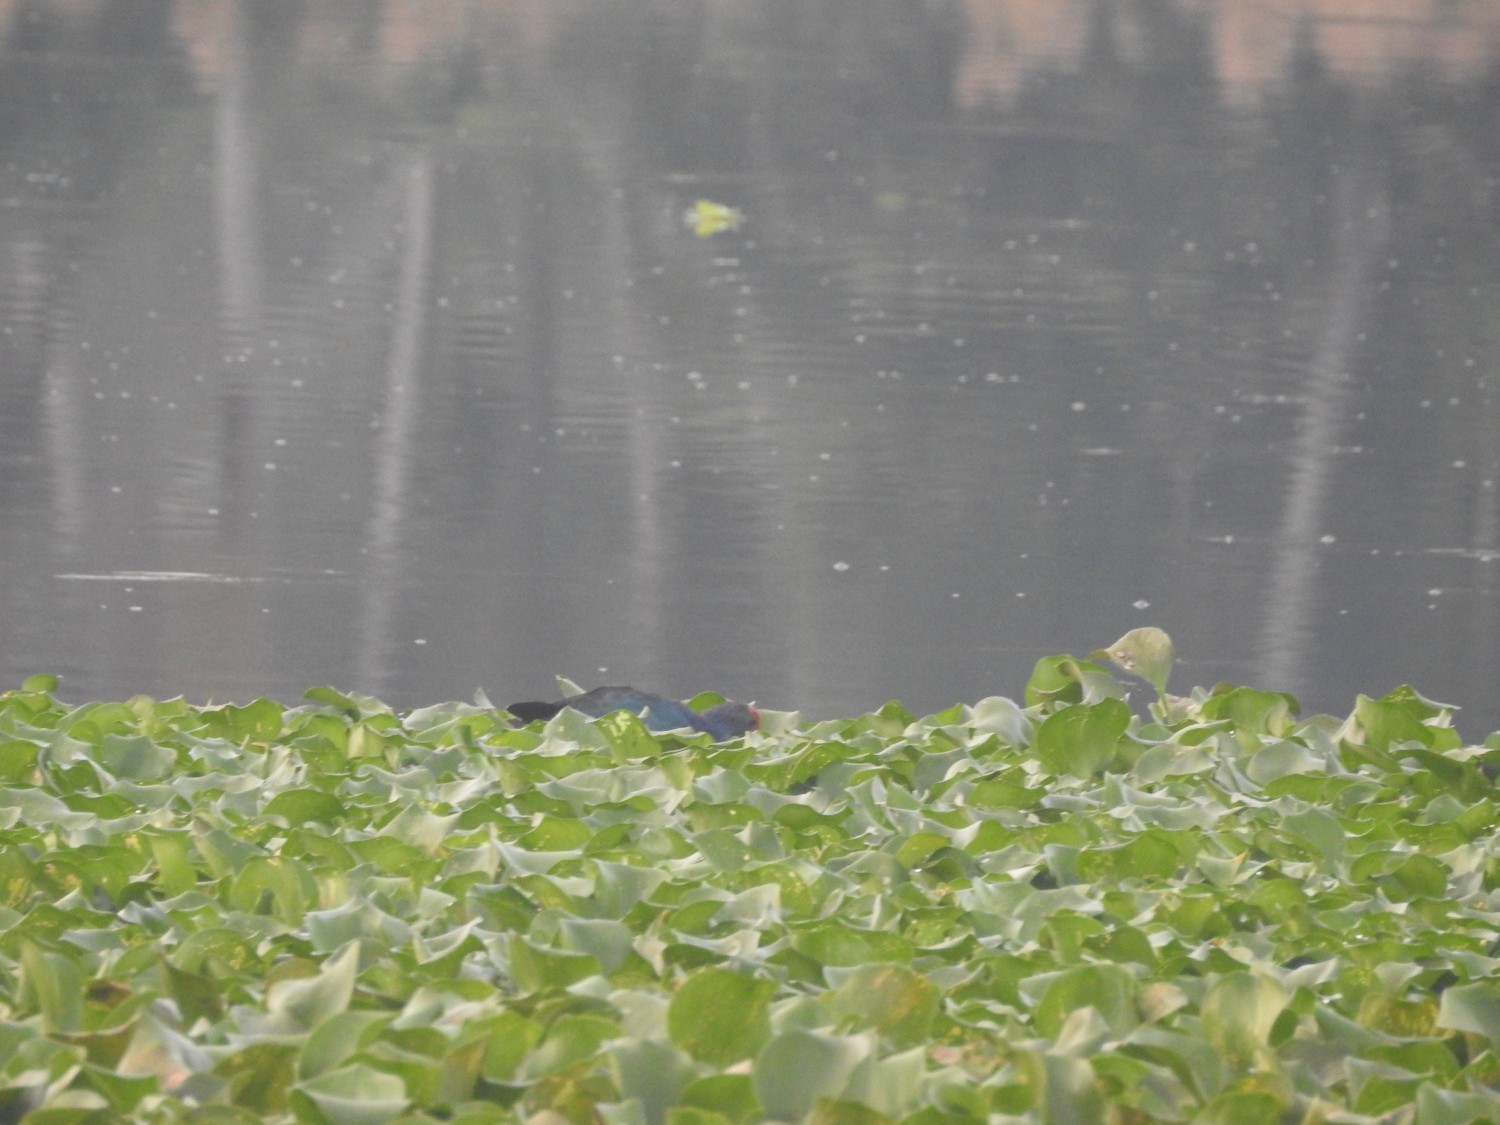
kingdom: Animalia
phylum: Chordata
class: Aves
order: Gruiformes
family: Rallidae
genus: Porphyrio
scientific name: Porphyrio porphyrio
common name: Purple swamphen
